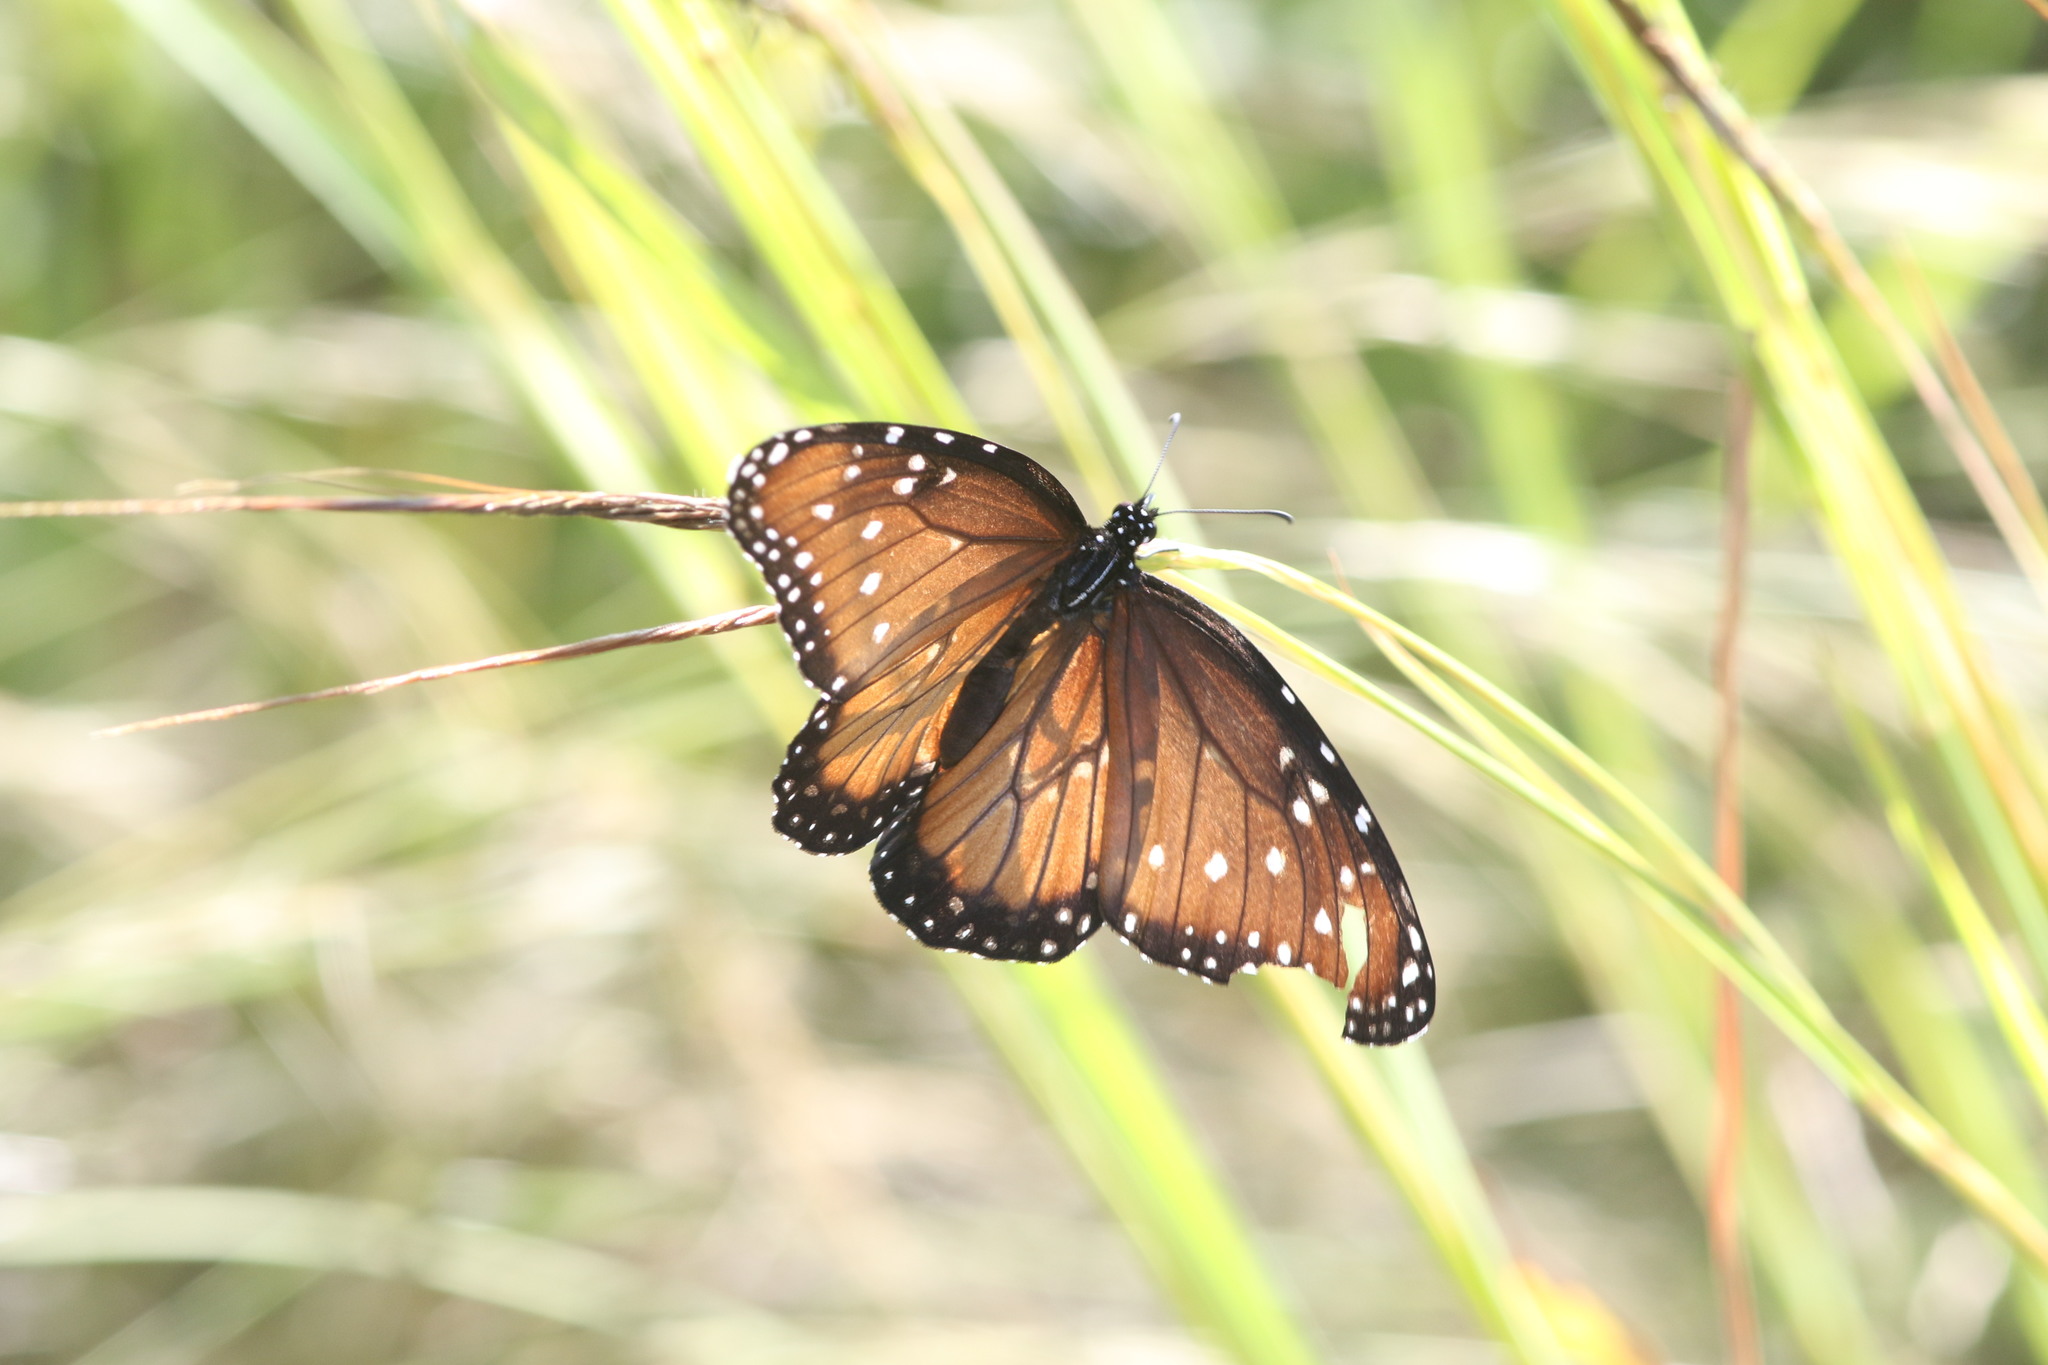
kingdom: Animalia
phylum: Arthropoda
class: Insecta
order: Lepidoptera
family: Nymphalidae
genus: Danaus
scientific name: Danaus gilippus
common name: Queen
